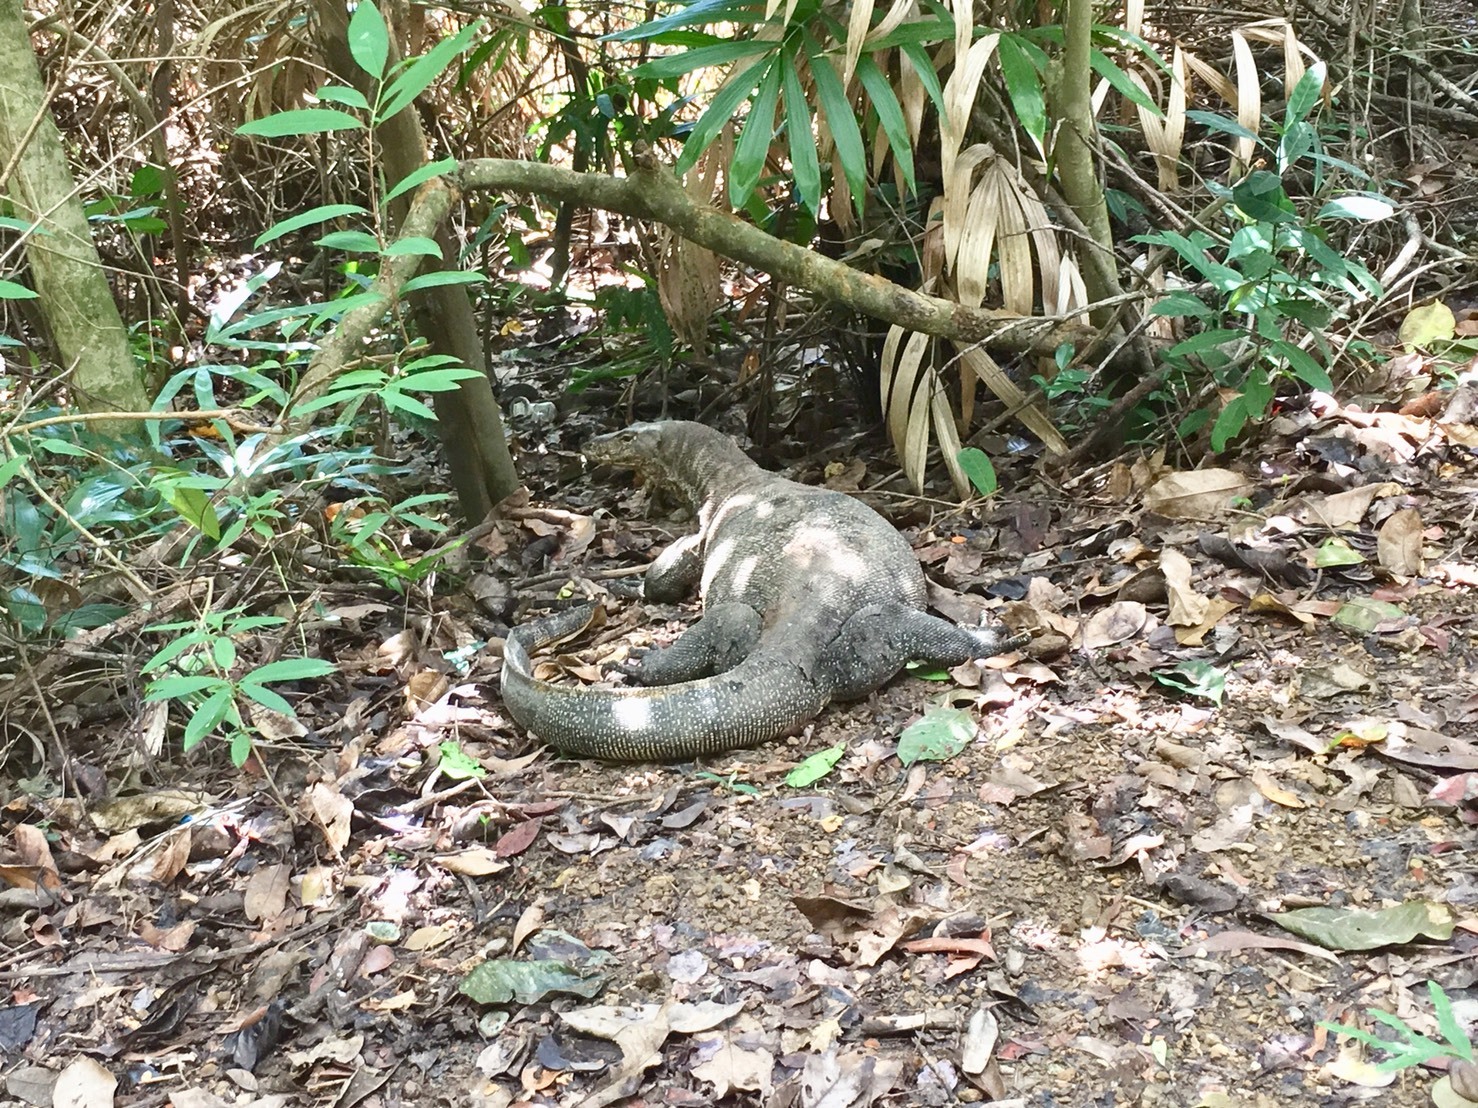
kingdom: Animalia
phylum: Chordata
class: Squamata
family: Varanidae
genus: Varanus
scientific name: Varanus salvator
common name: Common water monitor
